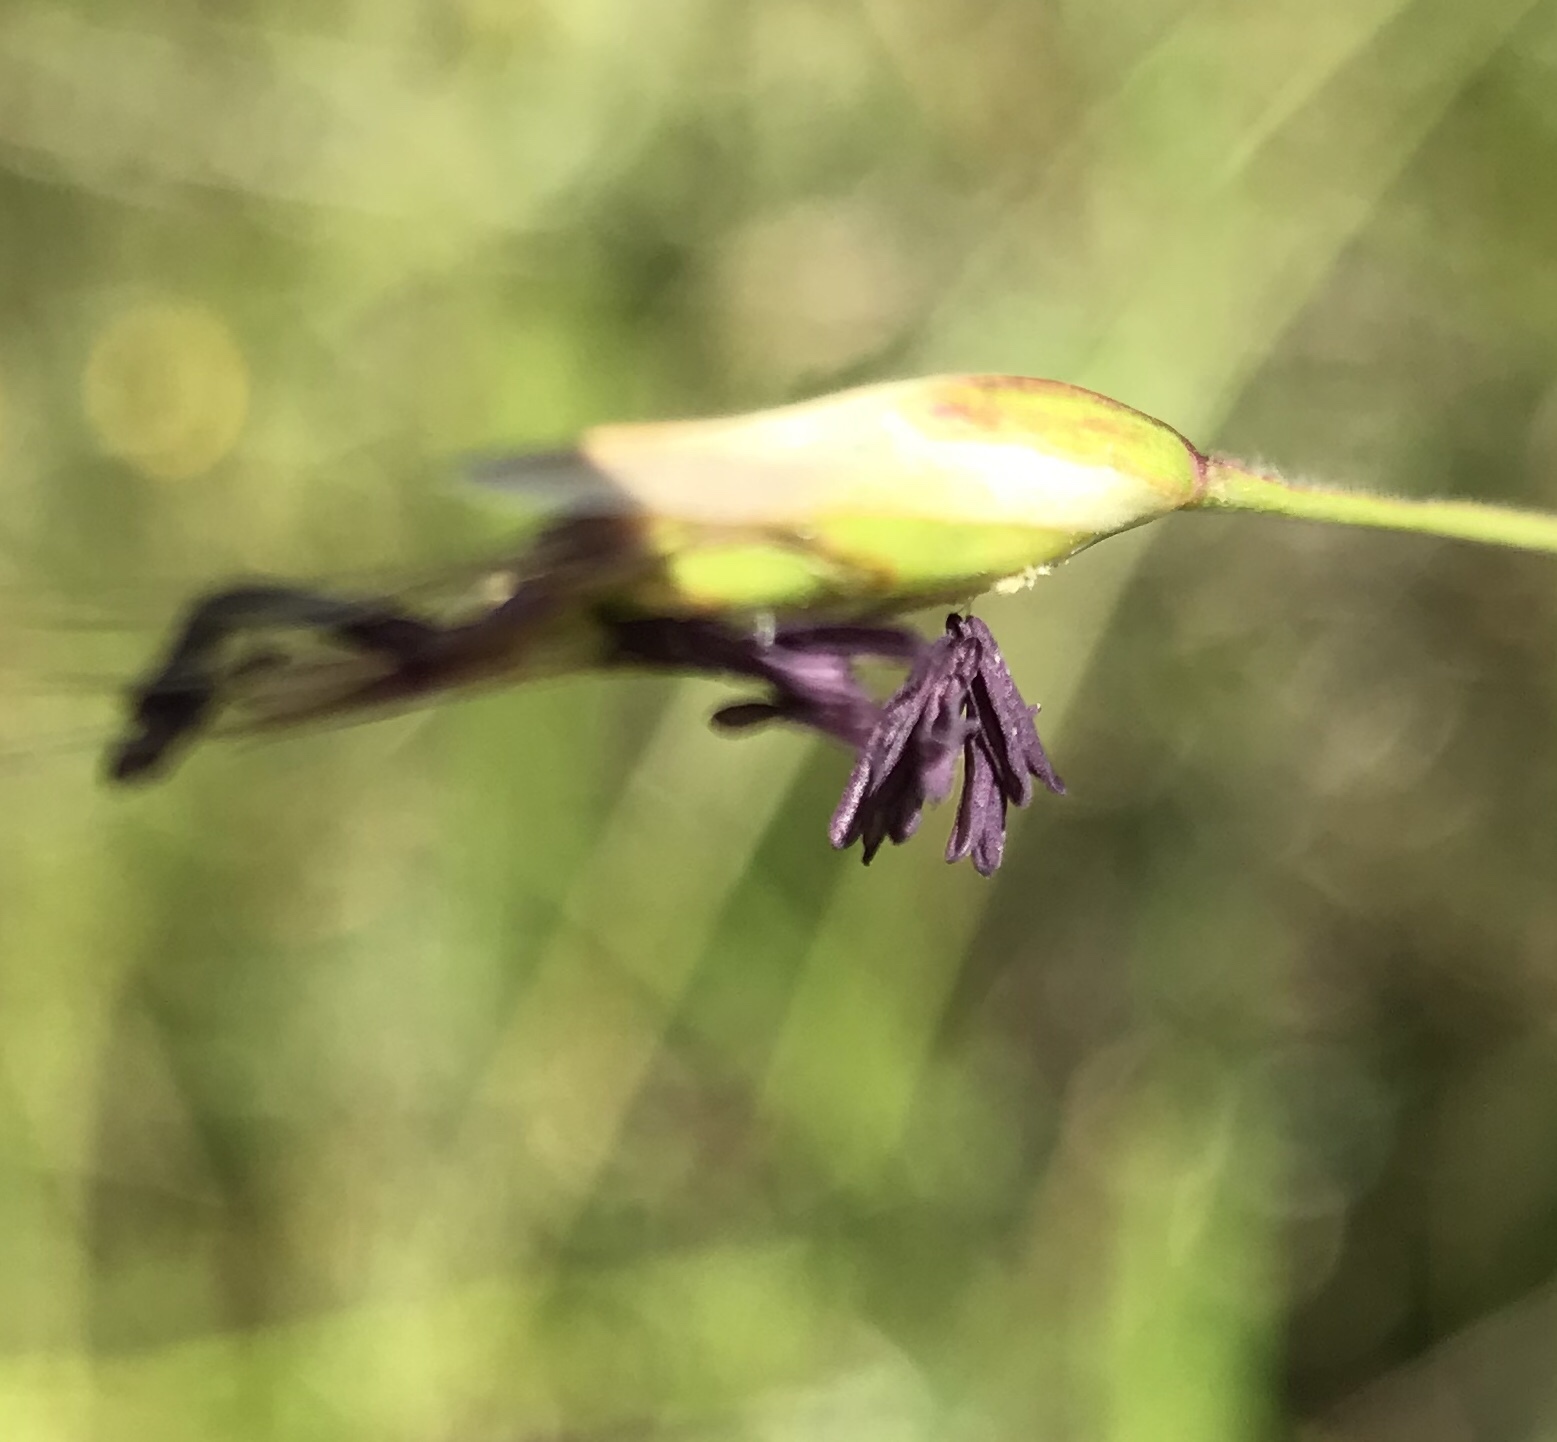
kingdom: Plantae
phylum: Tracheophyta
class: Liliopsida
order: Poales
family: Poaceae
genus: Danthonia
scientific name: Danthonia californica
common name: California oat grass
